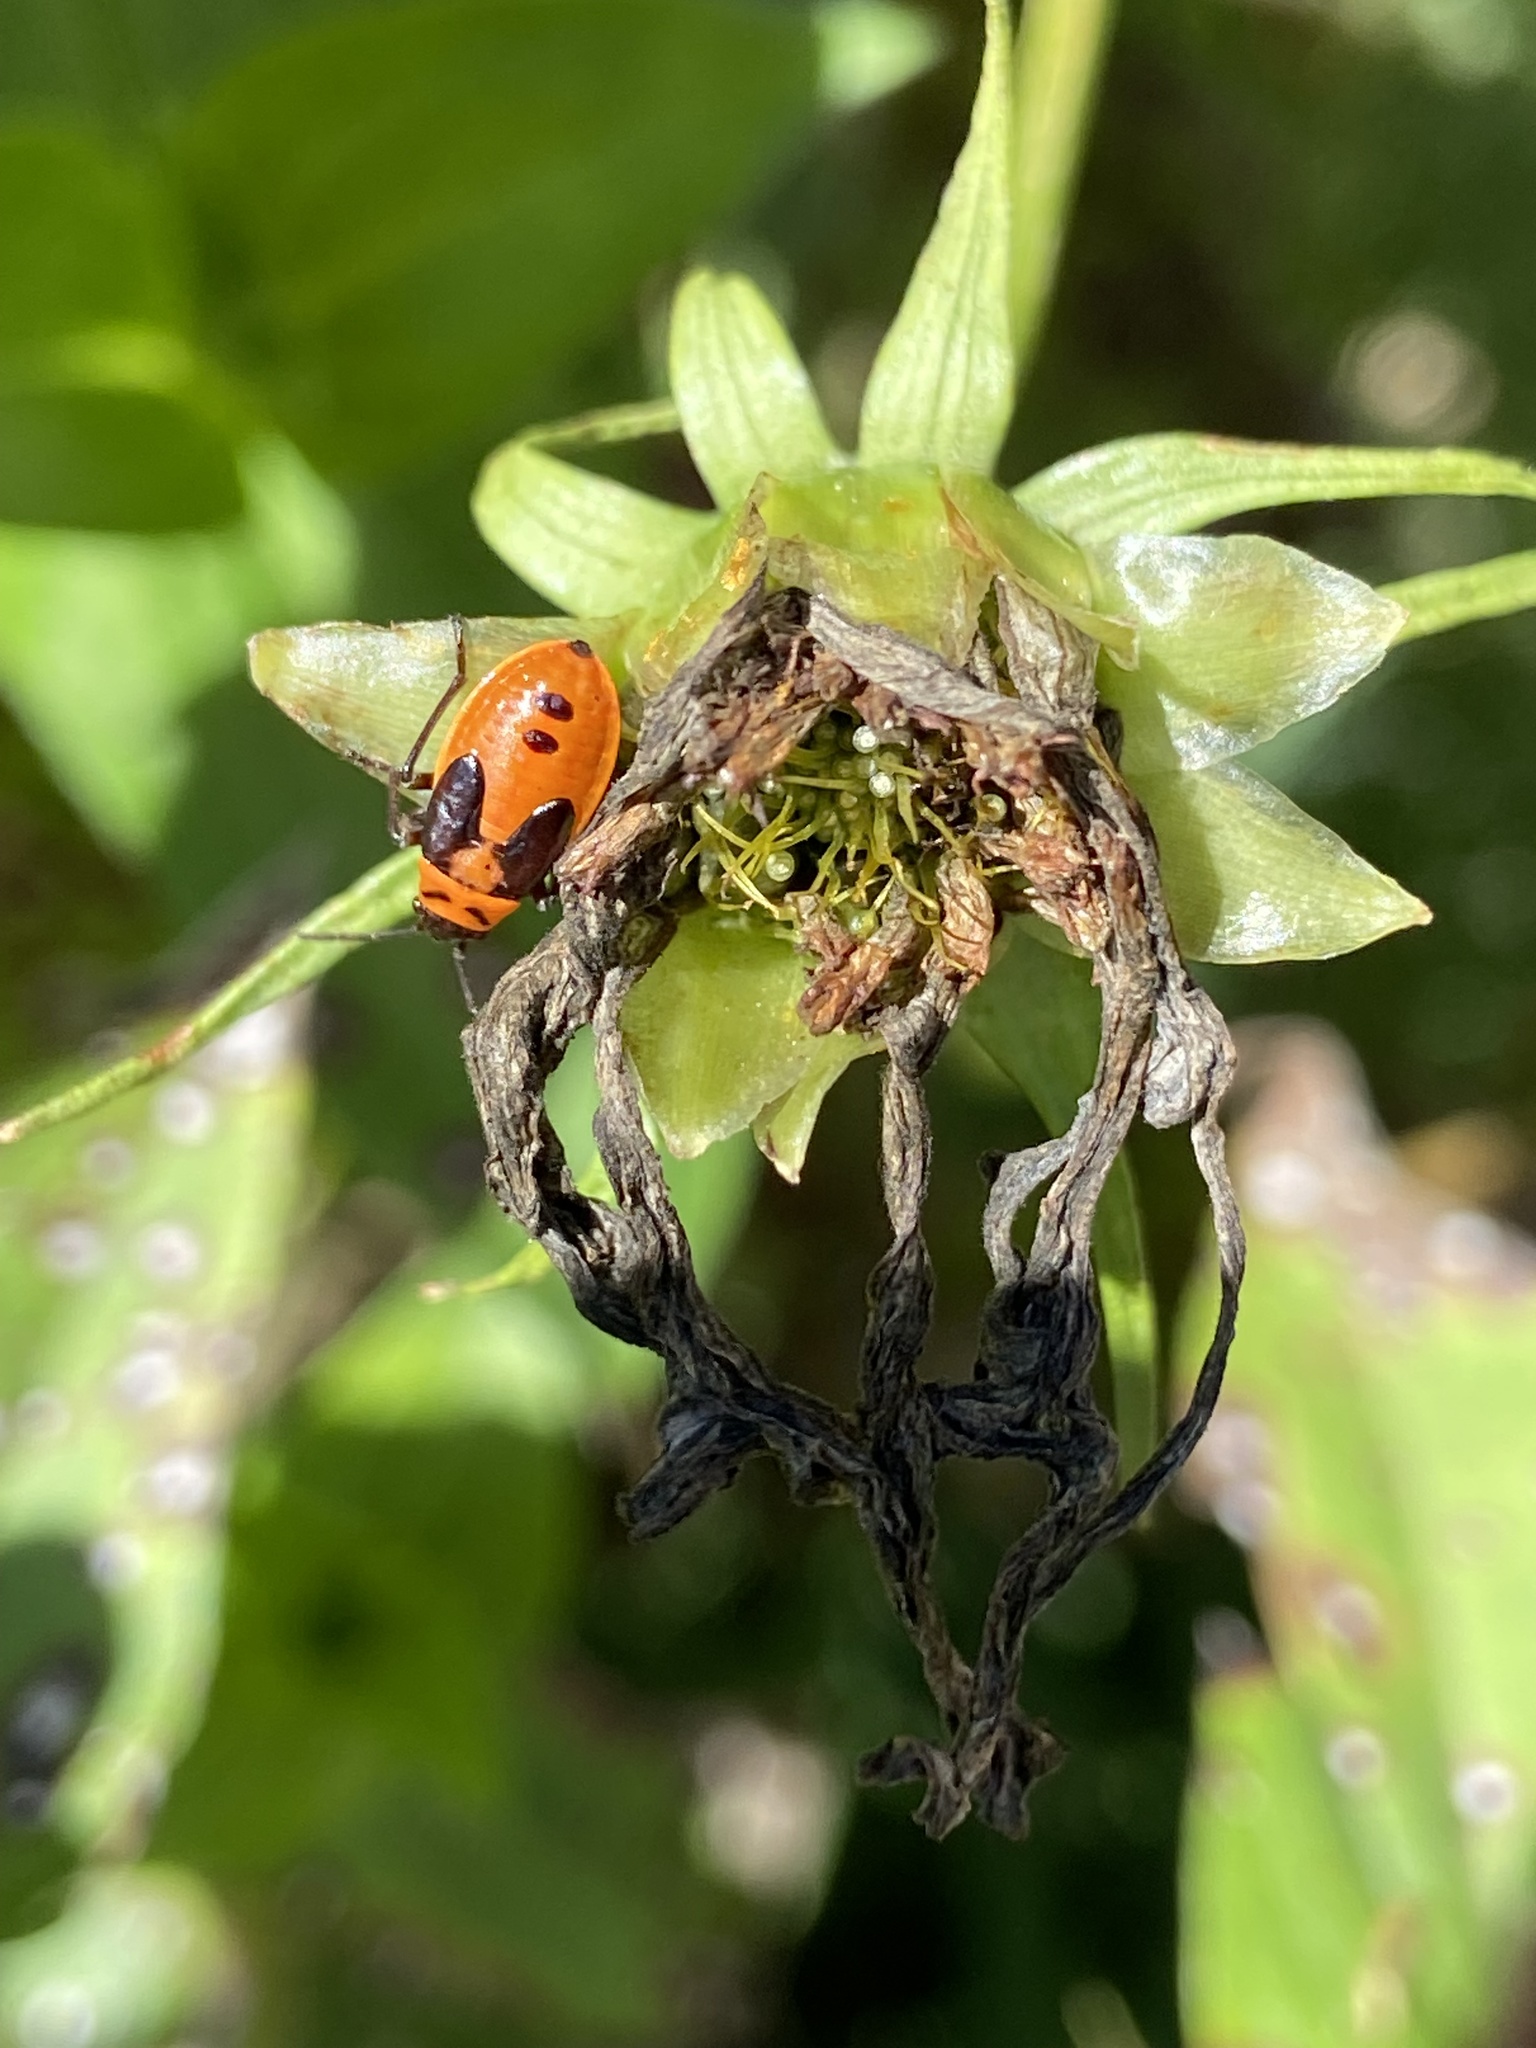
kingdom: Animalia
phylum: Arthropoda
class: Insecta
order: Hemiptera
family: Lygaeidae
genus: Lygaeus
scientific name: Lygaeus turcicus
